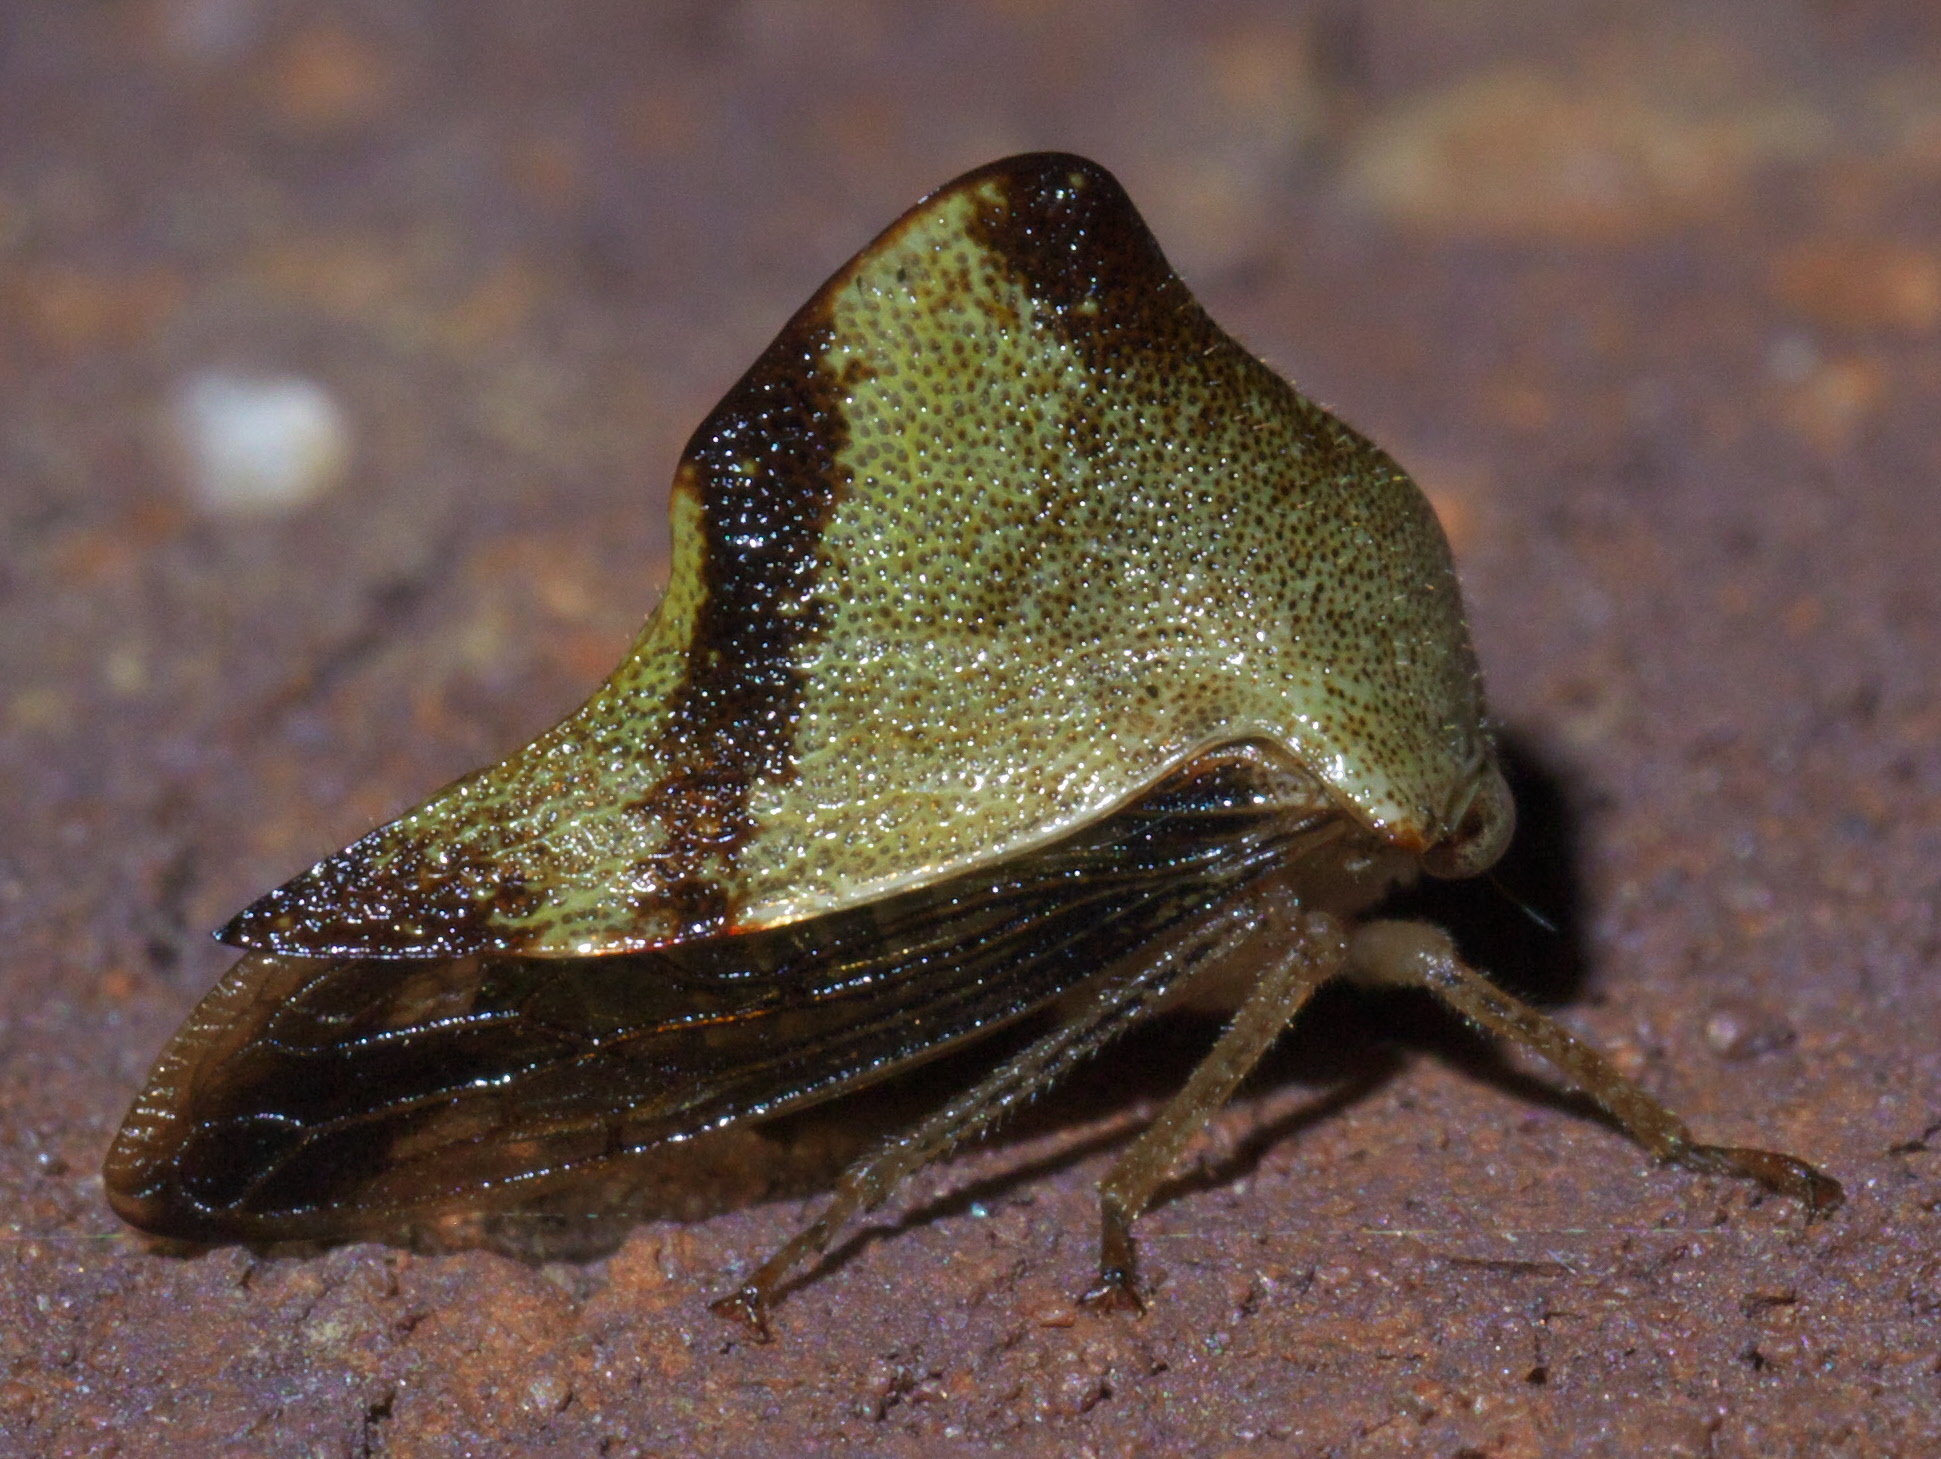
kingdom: Animalia
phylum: Arthropoda
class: Insecta
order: Hemiptera
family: Membracidae
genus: Helonica
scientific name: Helonica excelsa
